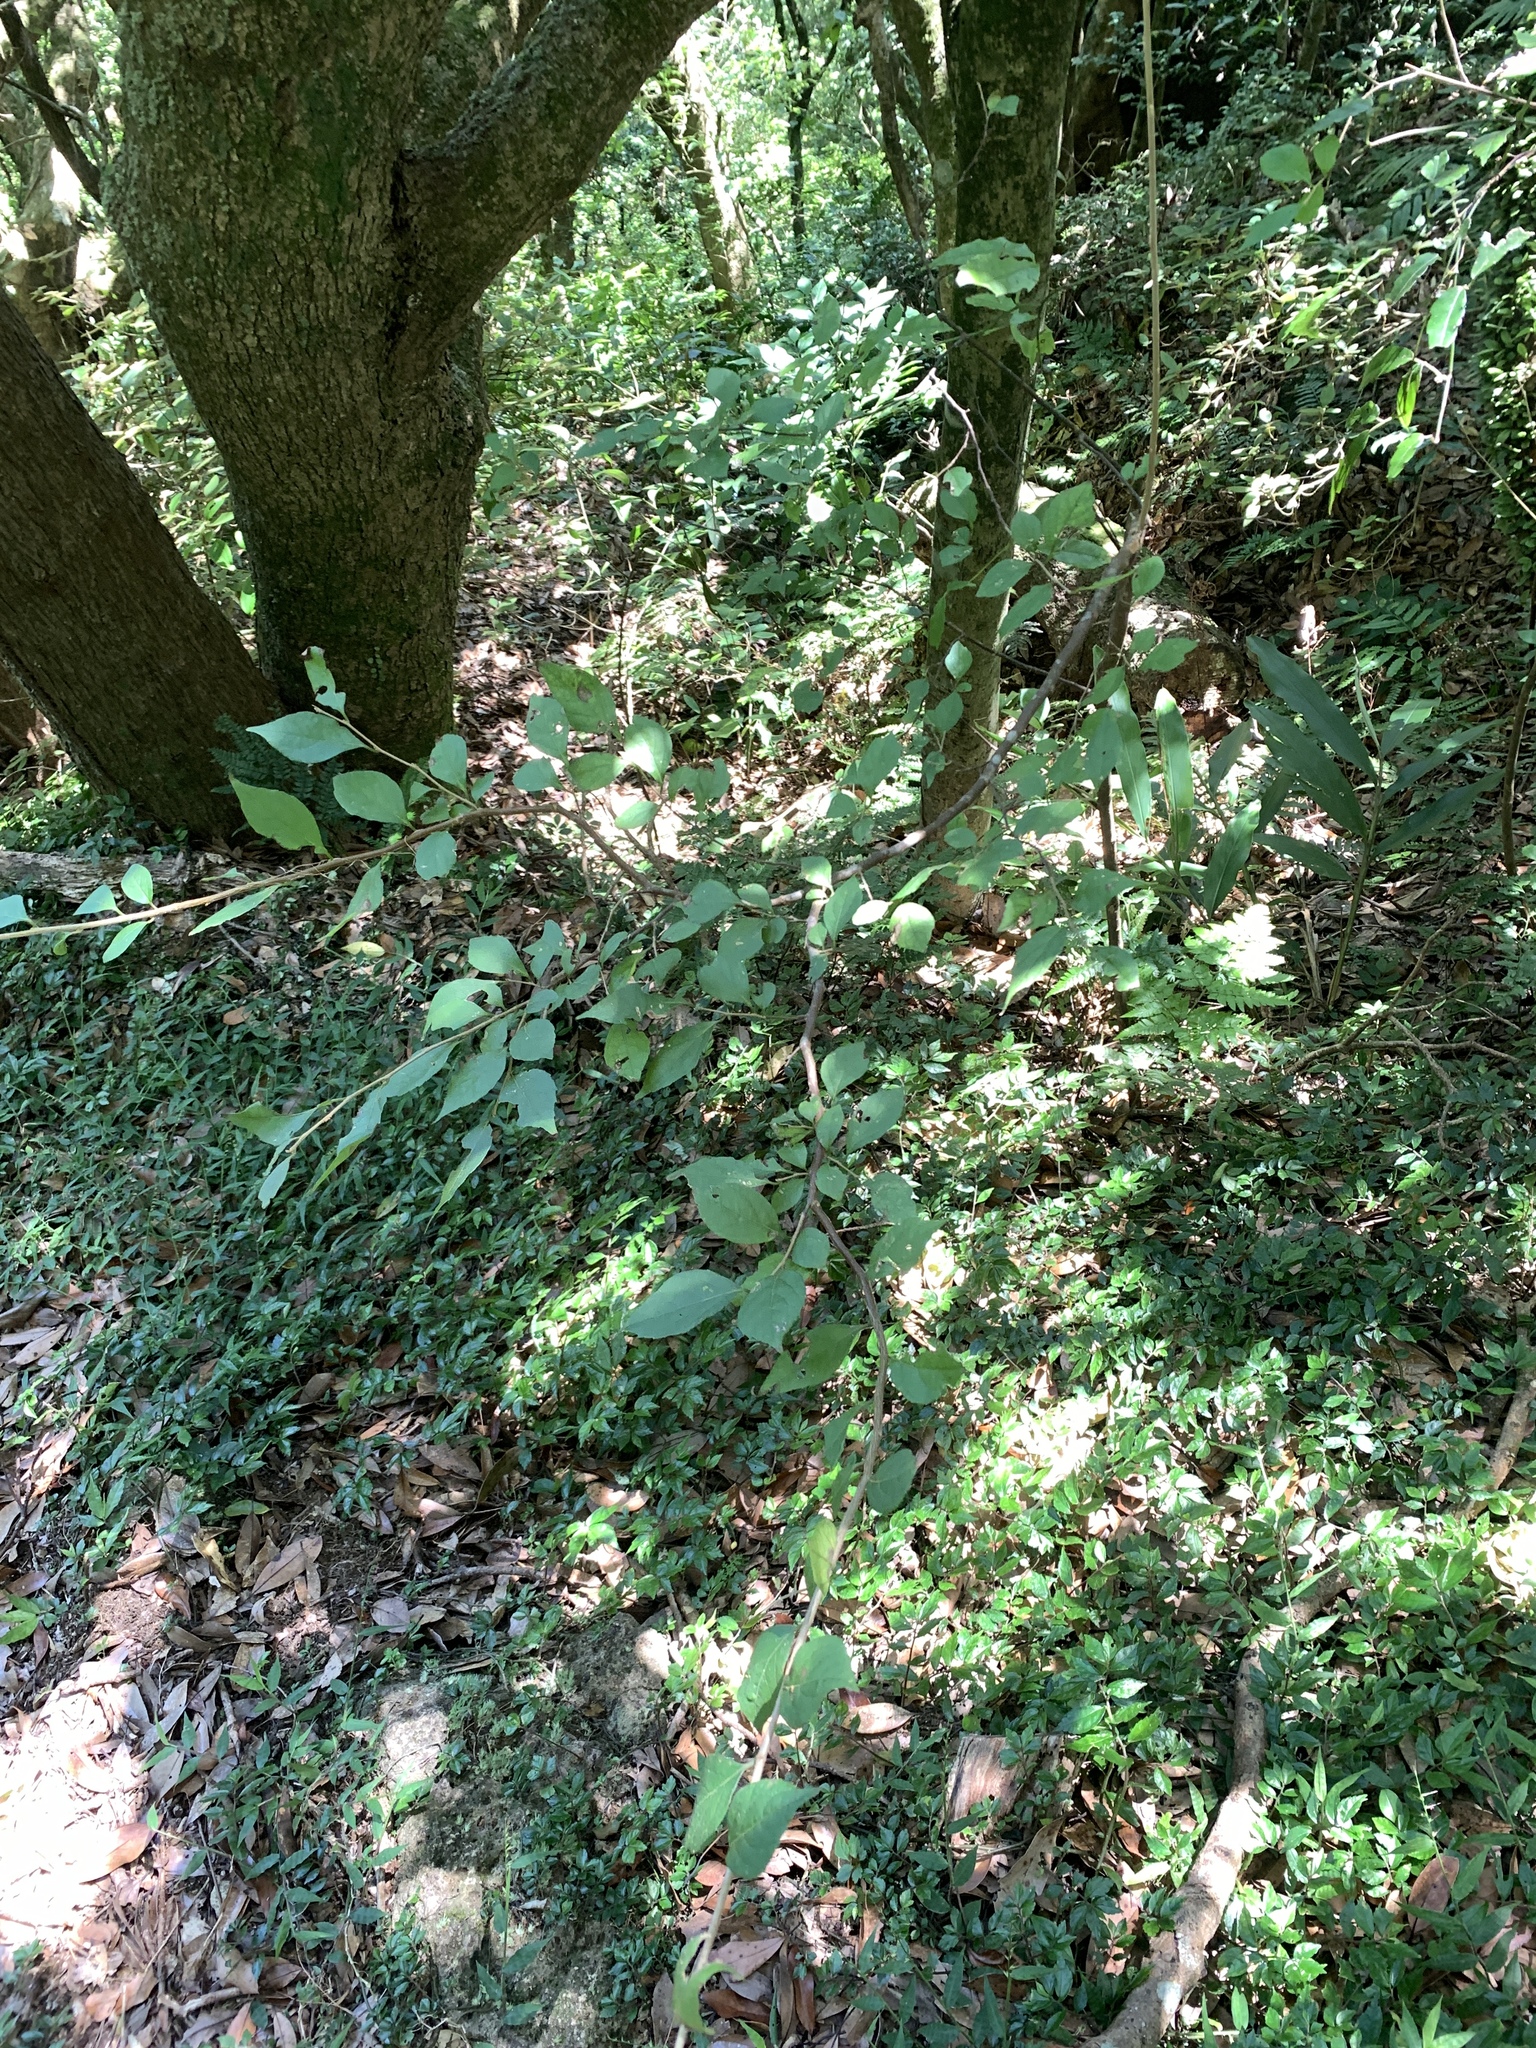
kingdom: Plantae
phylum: Tracheophyta
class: Magnoliopsida
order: Ericales
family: Styracaceae
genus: Styrax
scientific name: Styrax formosanus
